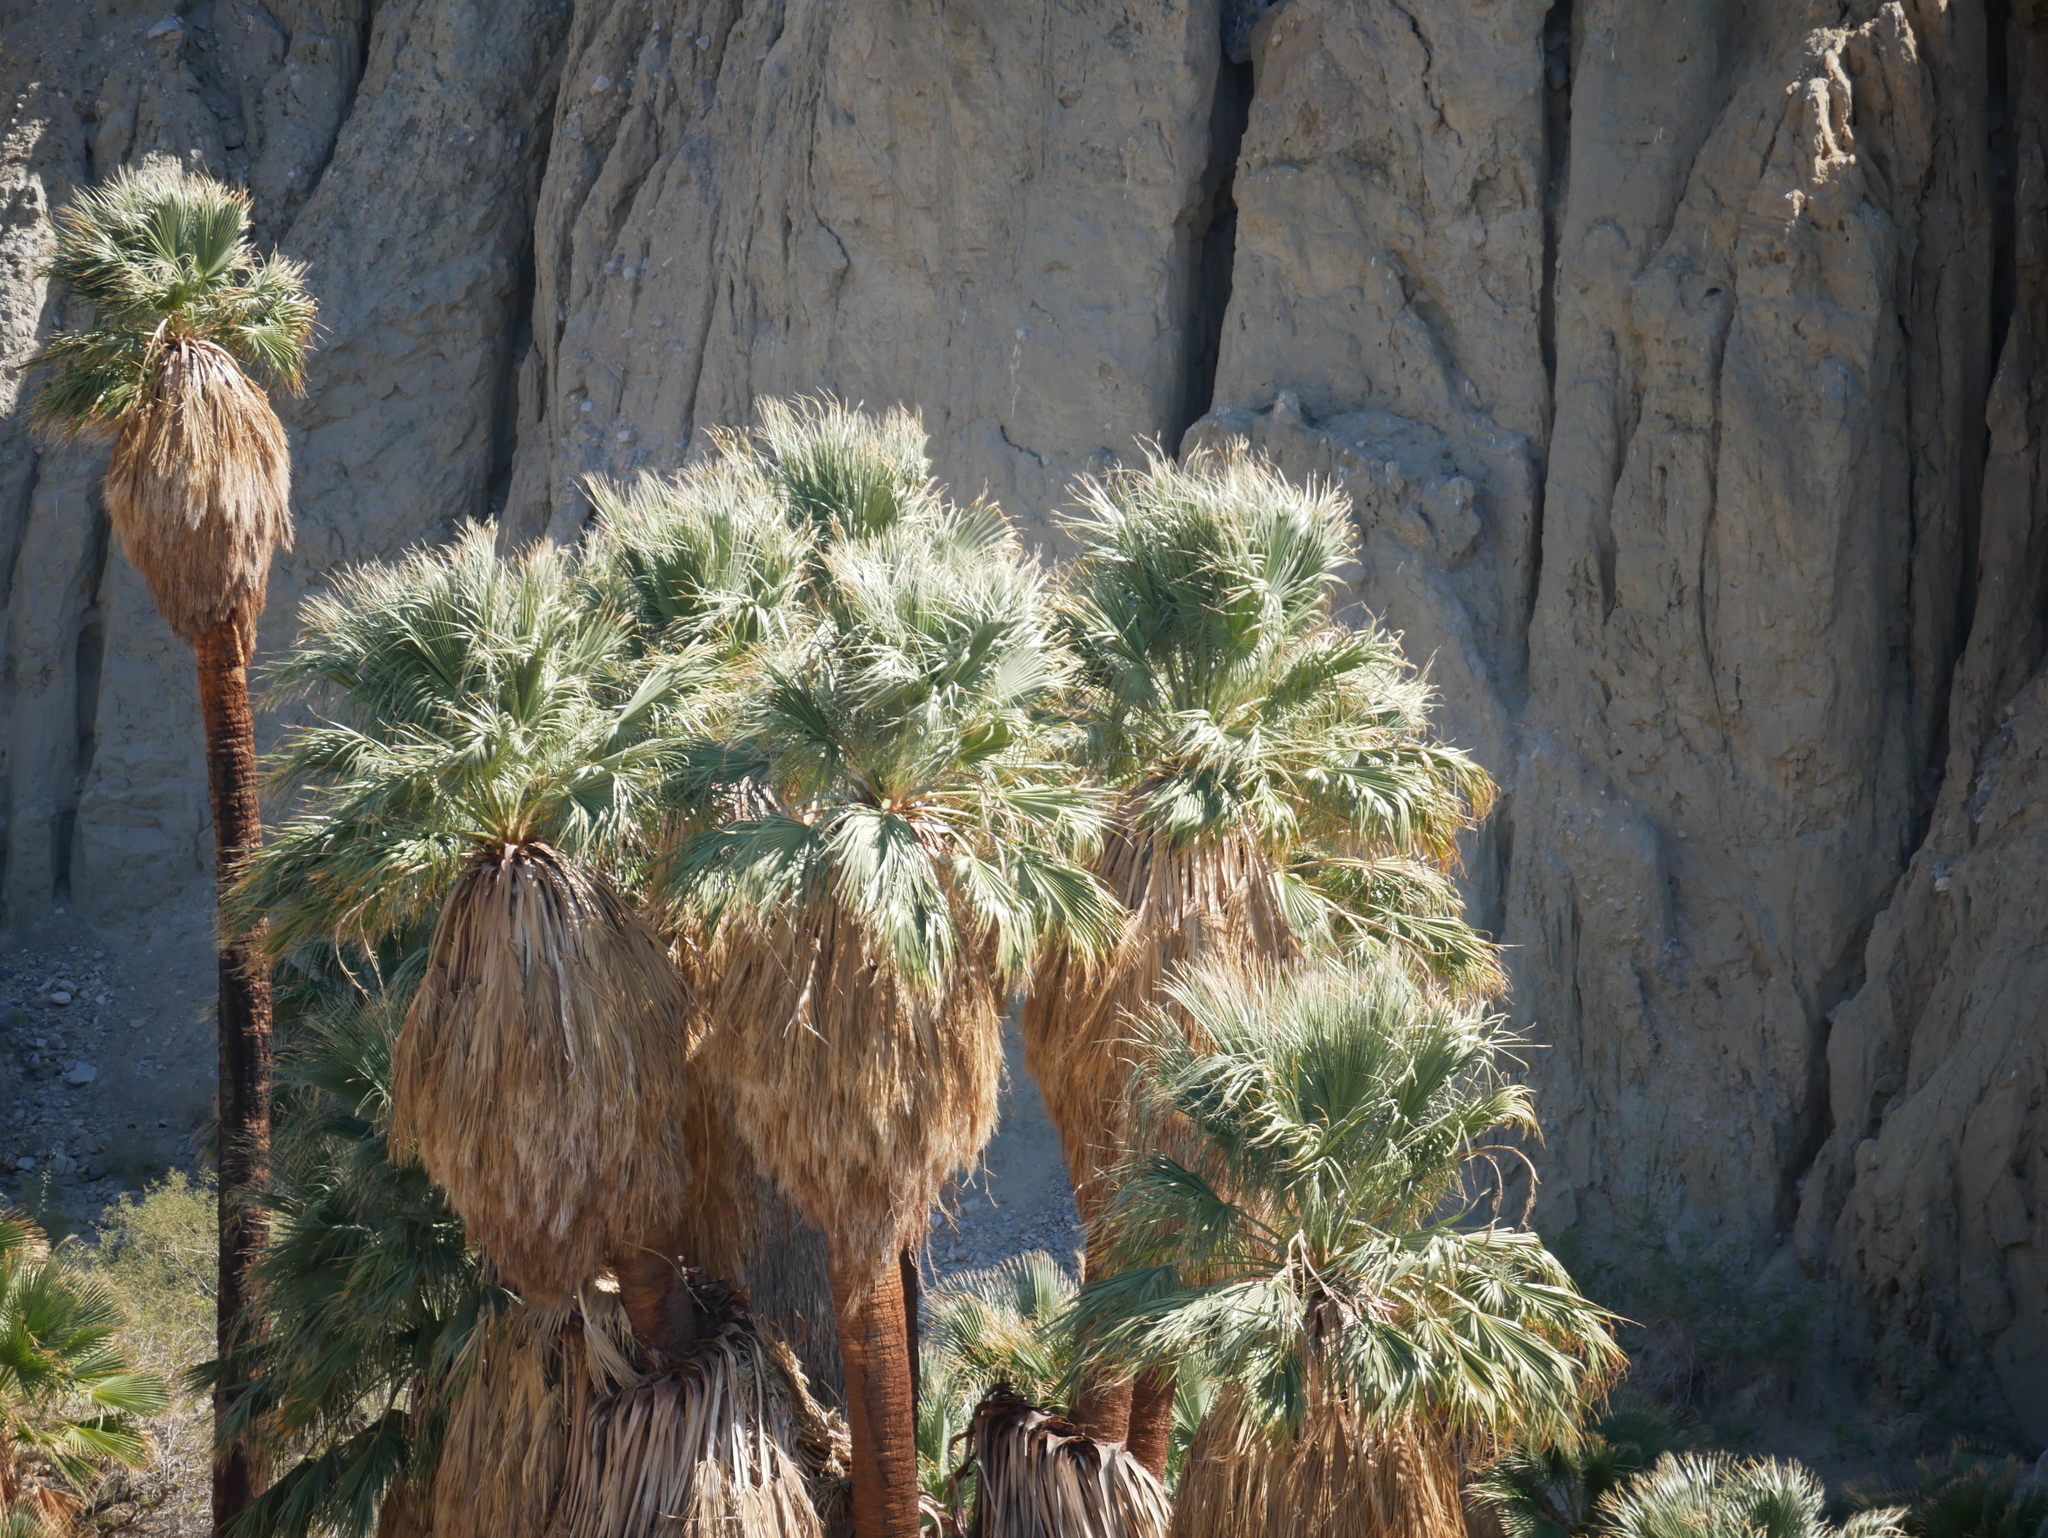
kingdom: Plantae
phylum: Tracheophyta
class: Liliopsida
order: Arecales
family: Arecaceae
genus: Washingtonia
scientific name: Washingtonia filifera
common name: California fan palm
